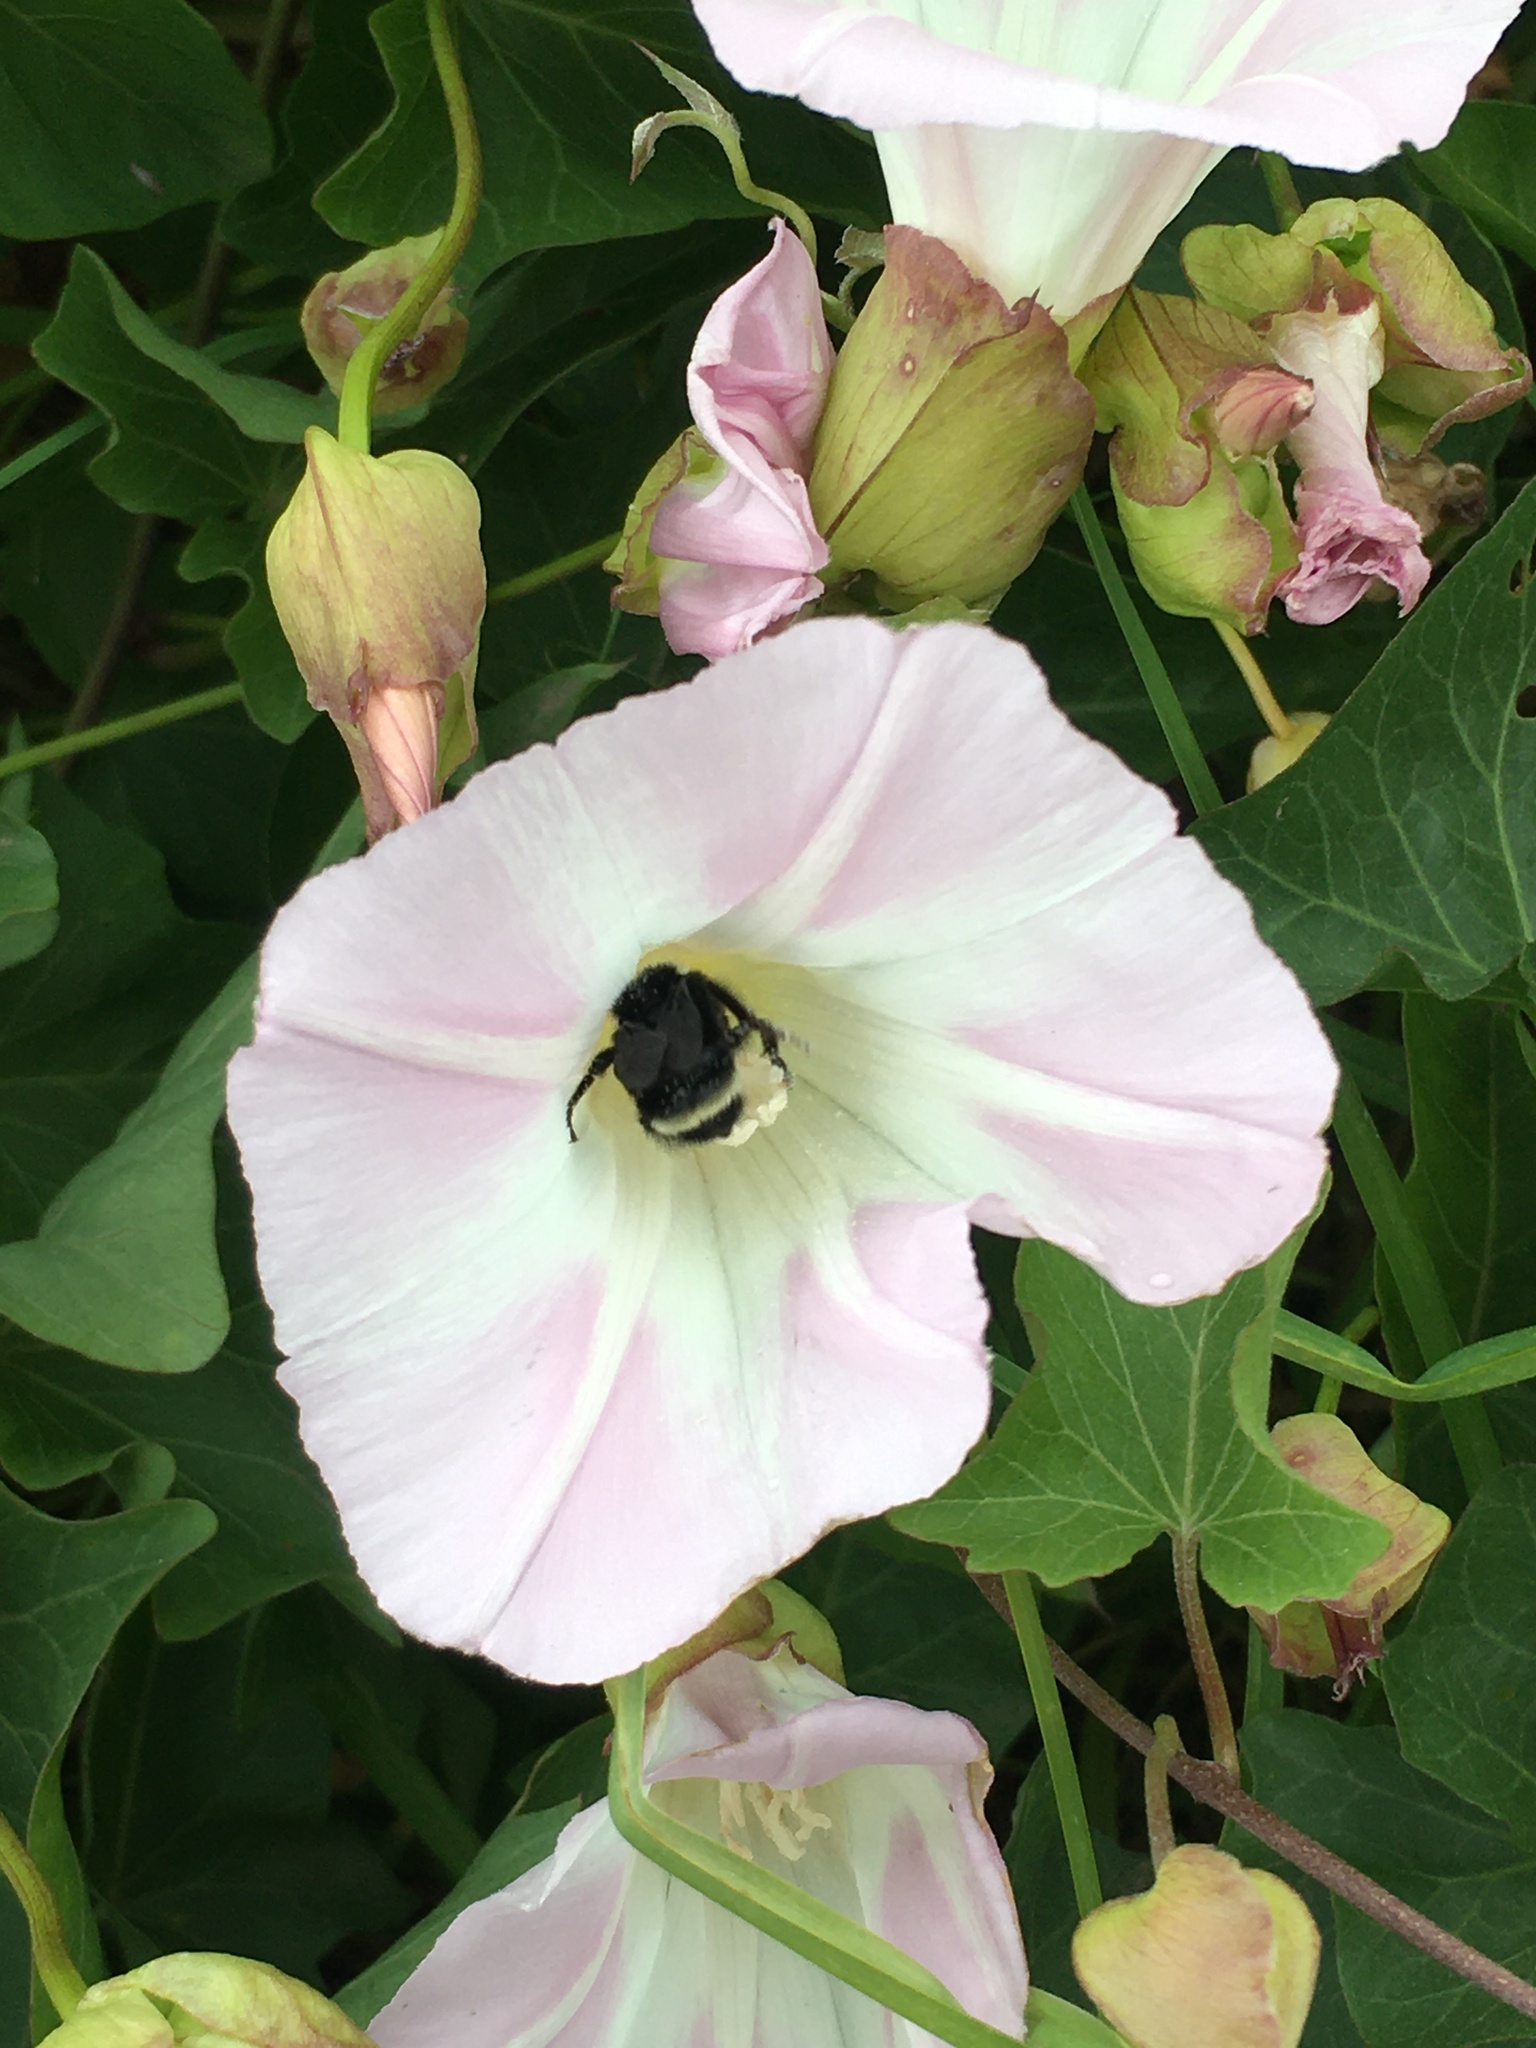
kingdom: Animalia
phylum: Arthropoda
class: Insecta
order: Hymenoptera
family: Apidae
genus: Bombus
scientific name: Bombus vosnesenskii
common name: Vosnesensky bumble bee
